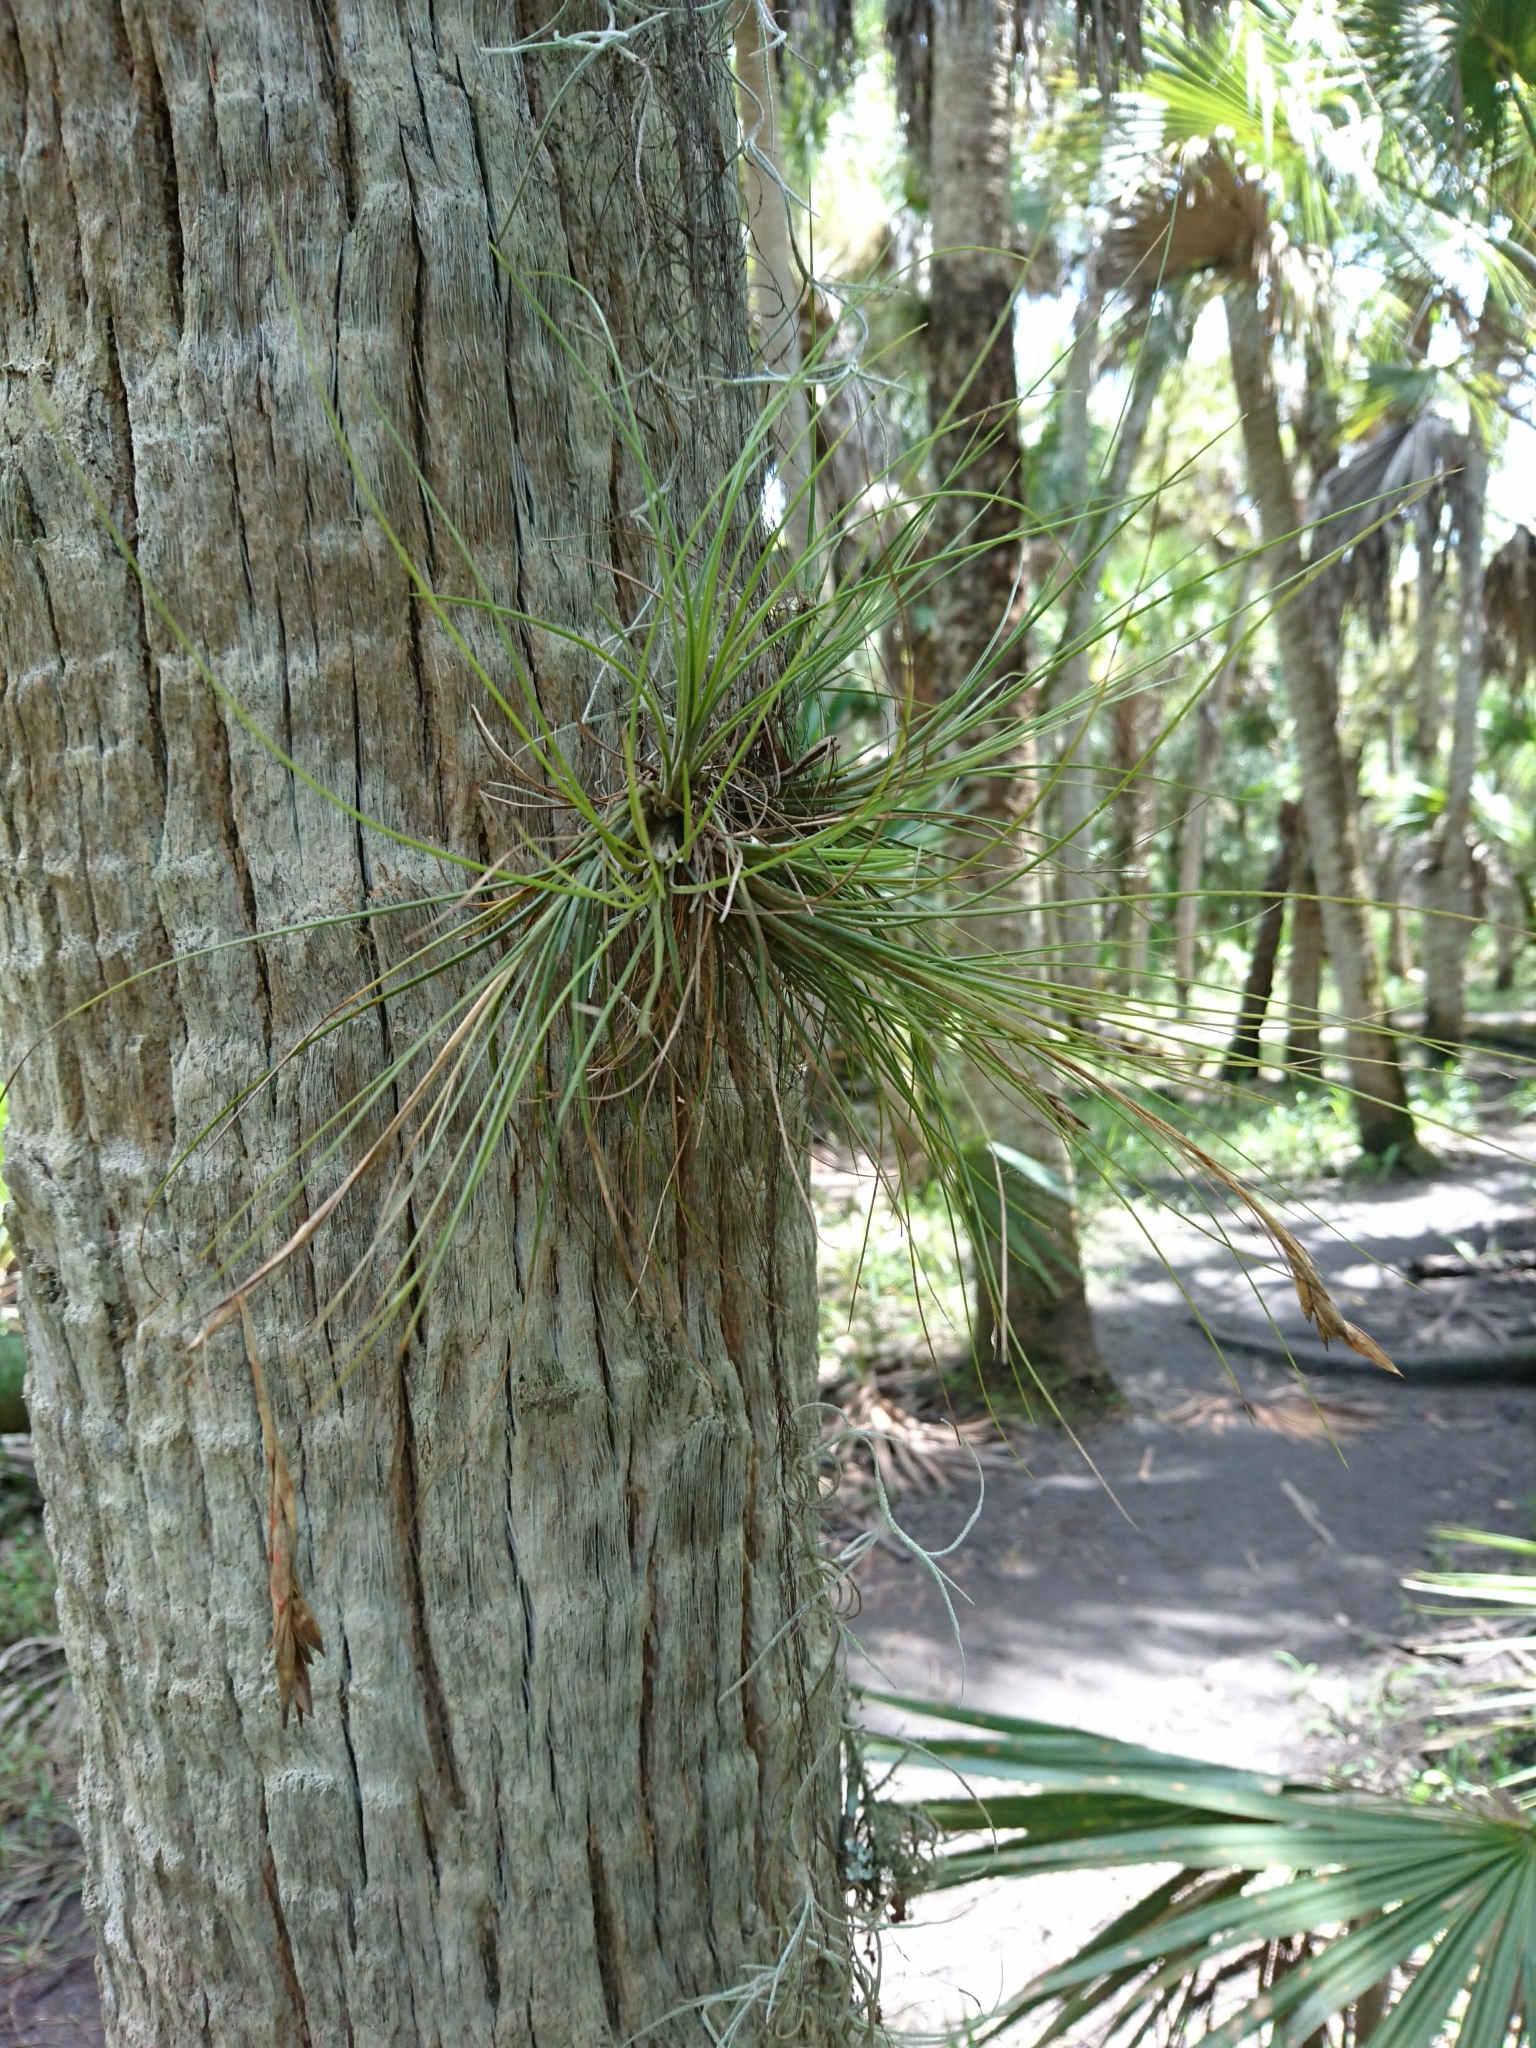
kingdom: Plantae
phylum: Tracheophyta
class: Liliopsida
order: Poales
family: Bromeliaceae
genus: Tillandsia
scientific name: Tillandsia setacea
